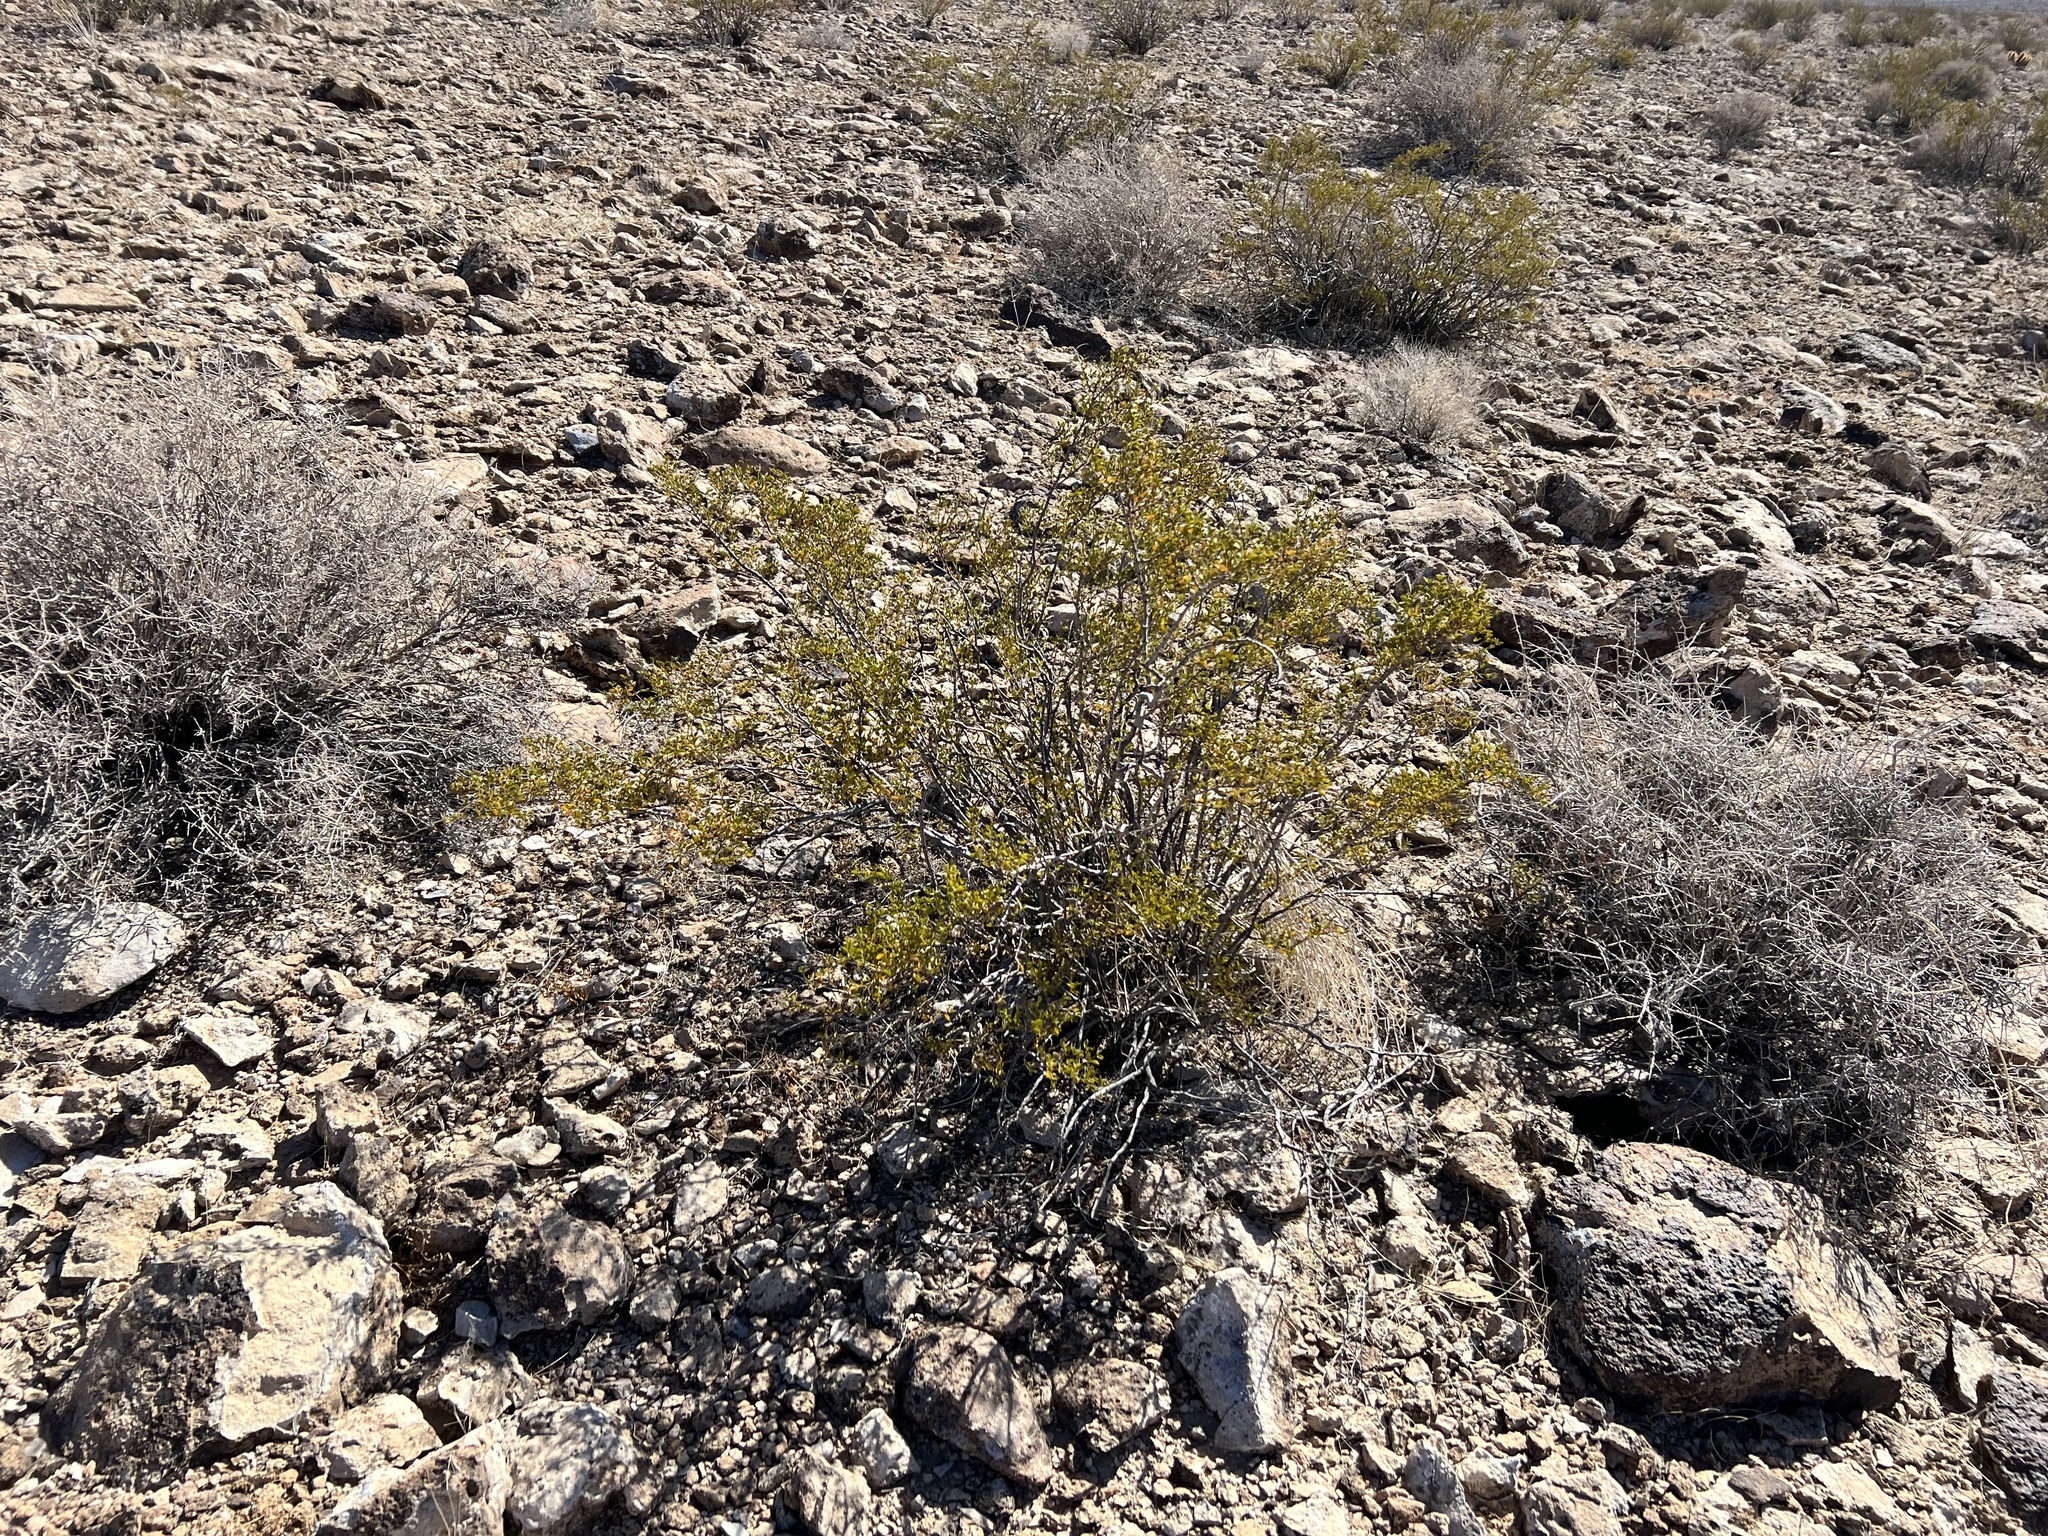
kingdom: Plantae
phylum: Tracheophyta
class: Magnoliopsida
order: Zygophyllales
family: Zygophyllaceae
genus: Larrea
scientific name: Larrea tridentata
